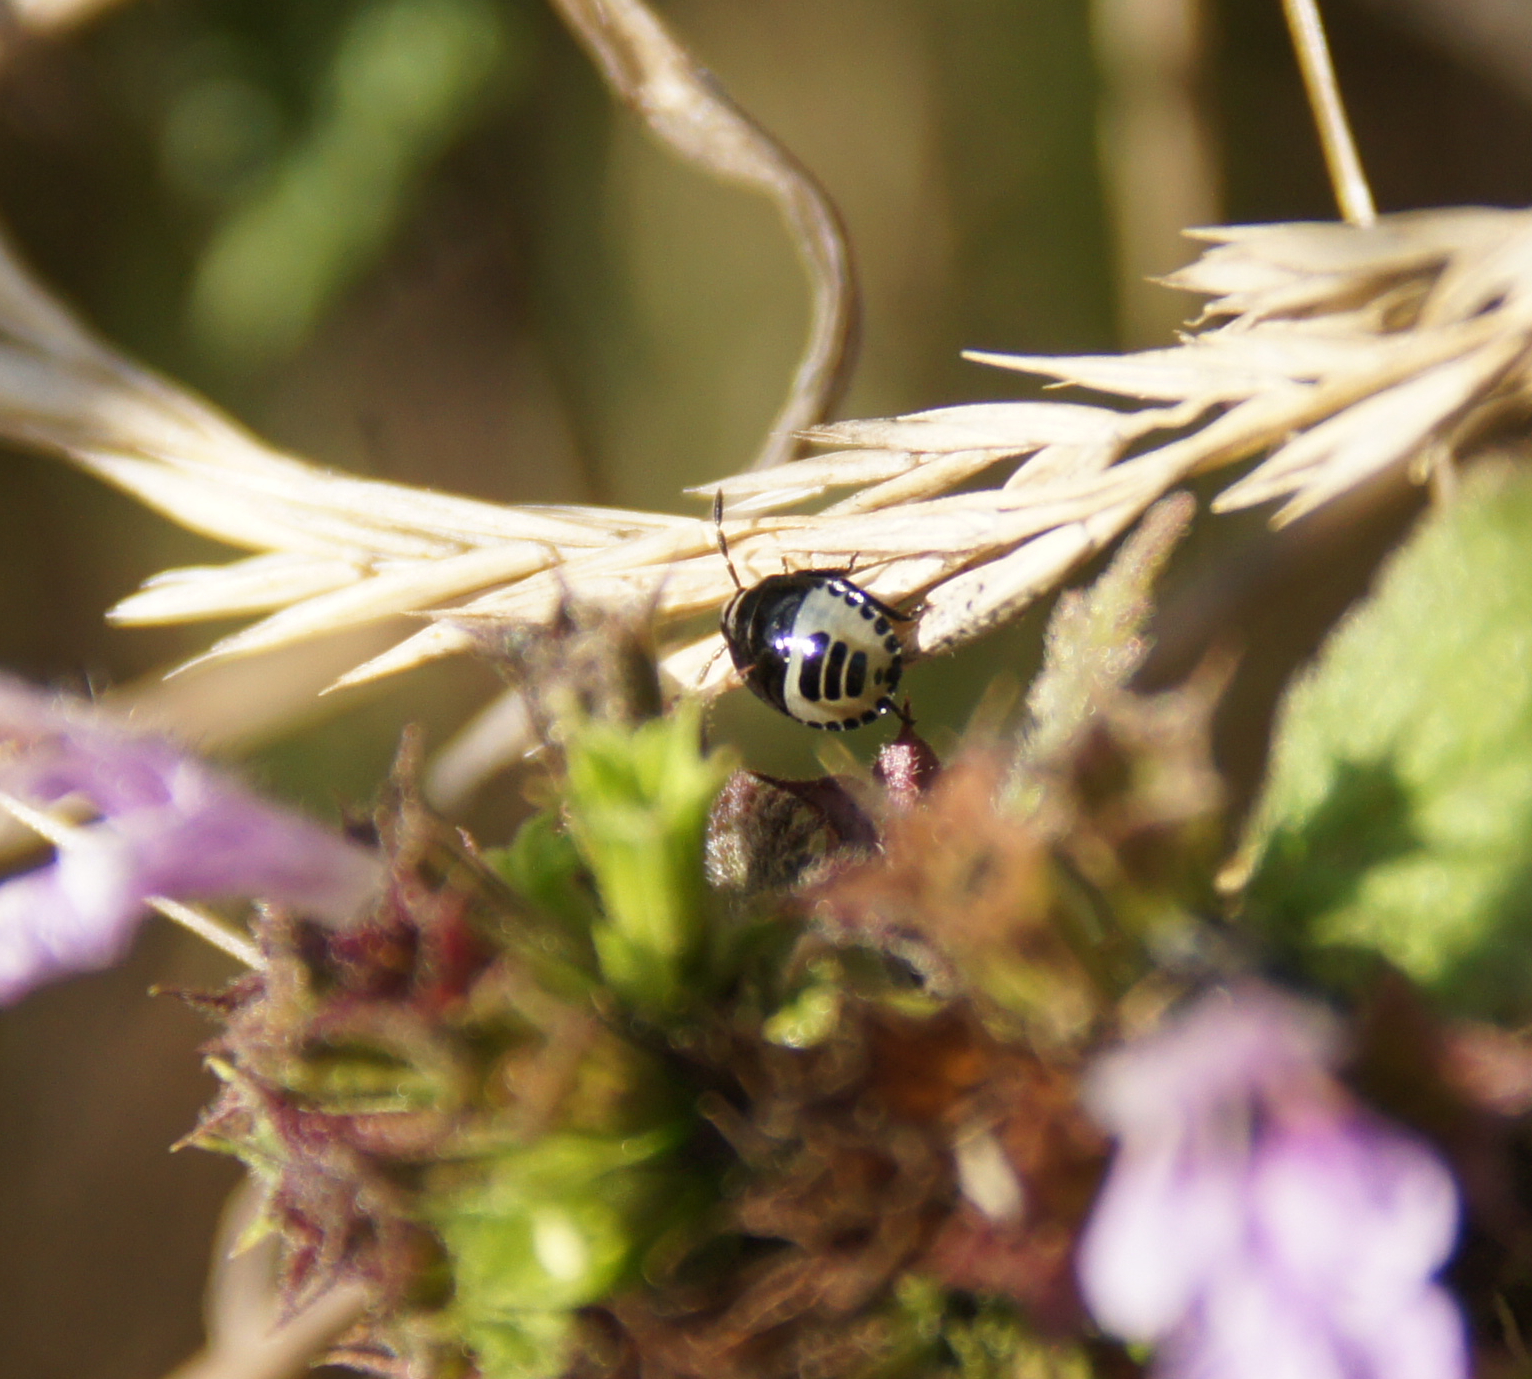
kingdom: Animalia
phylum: Arthropoda
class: Insecta
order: Hemiptera
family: Cydnidae
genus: Tritomegas
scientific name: Tritomegas sexmaculatus
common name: Rambur's pied shieldbug
